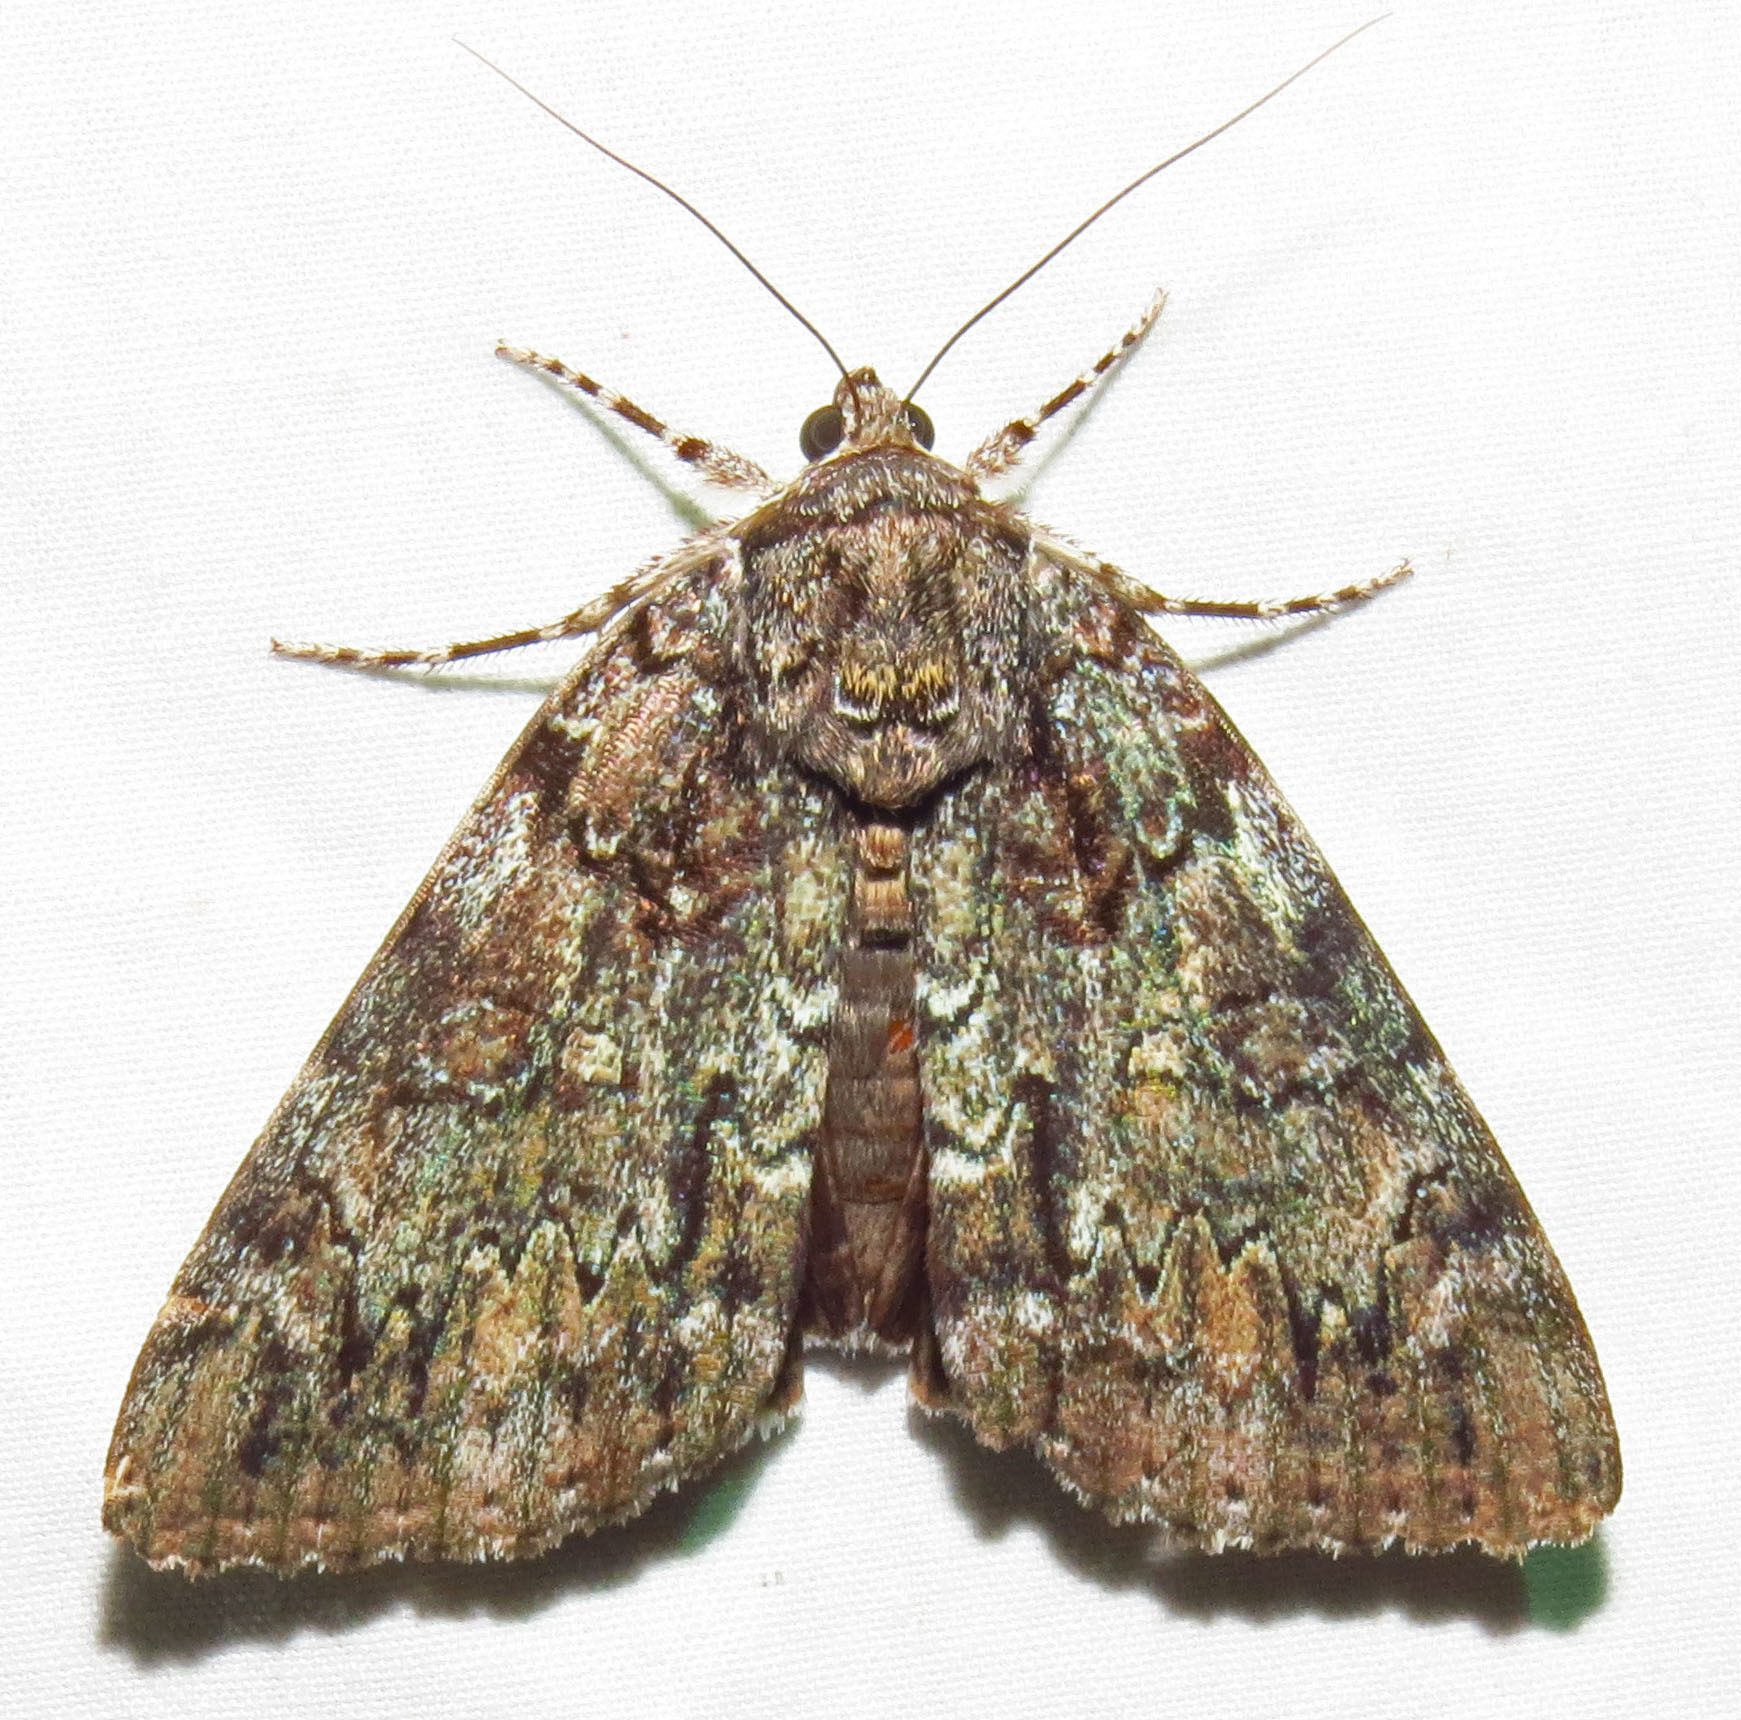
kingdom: Animalia
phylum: Arthropoda
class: Insecta
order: Lepidoptera
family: Erebidae
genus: Catocala
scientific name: Catocala lacrymosa
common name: Tearful underwing
